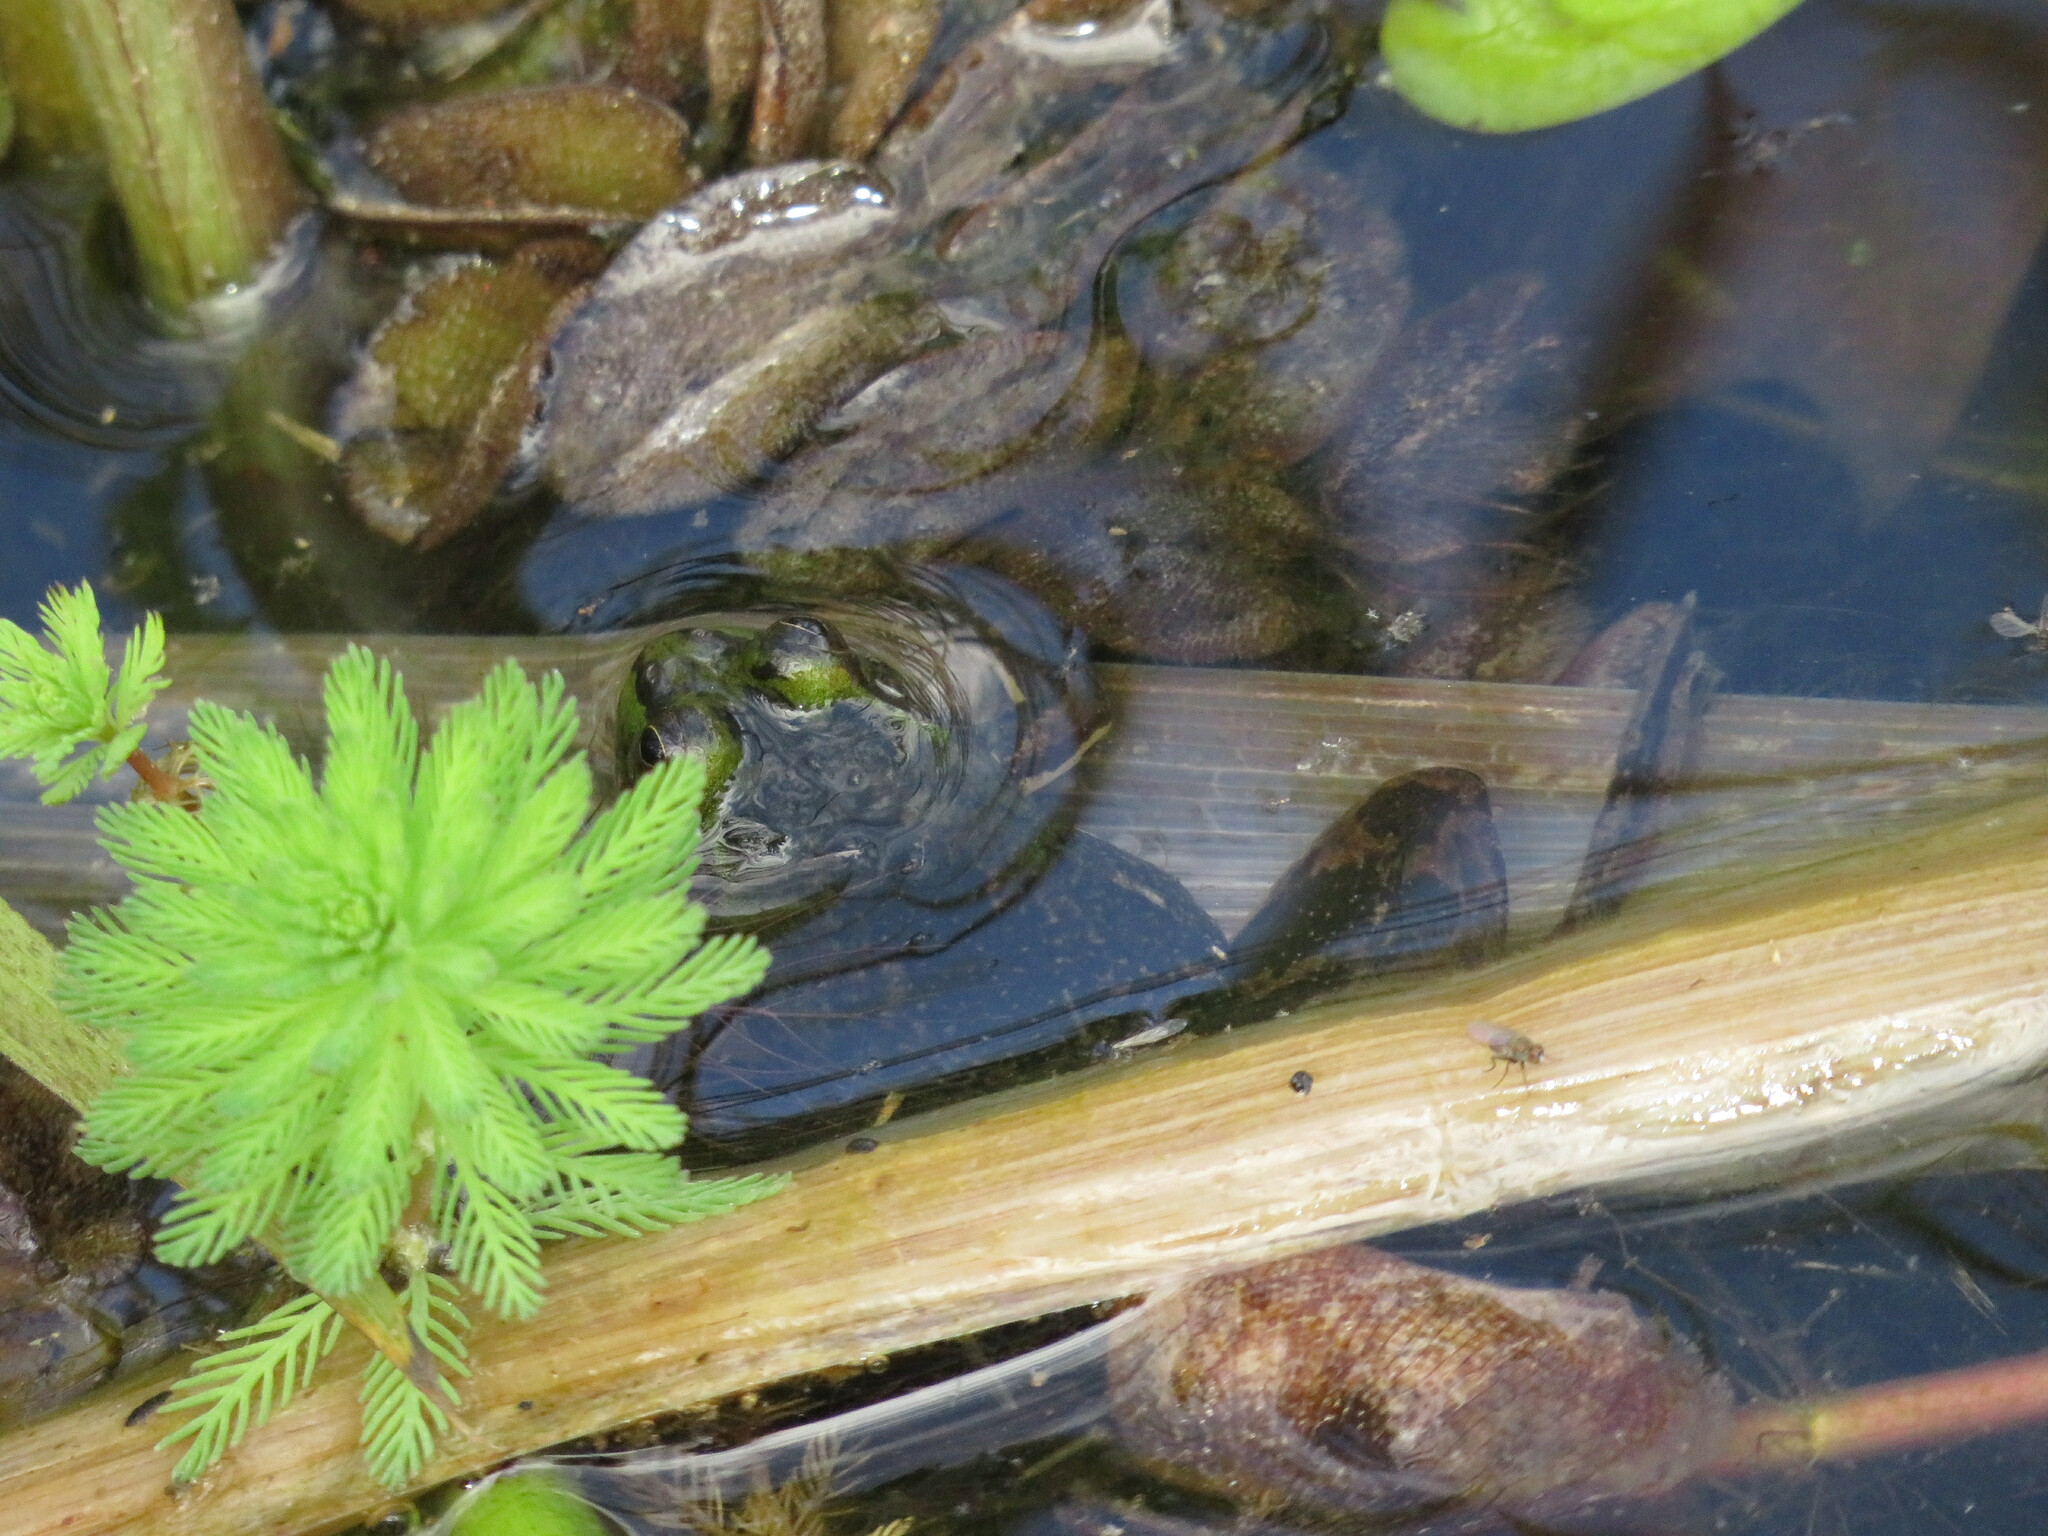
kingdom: Animalia
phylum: Chordata
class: Amphibia
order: Anura
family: Hylidae
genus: Pseudis
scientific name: Pseudis minuta
